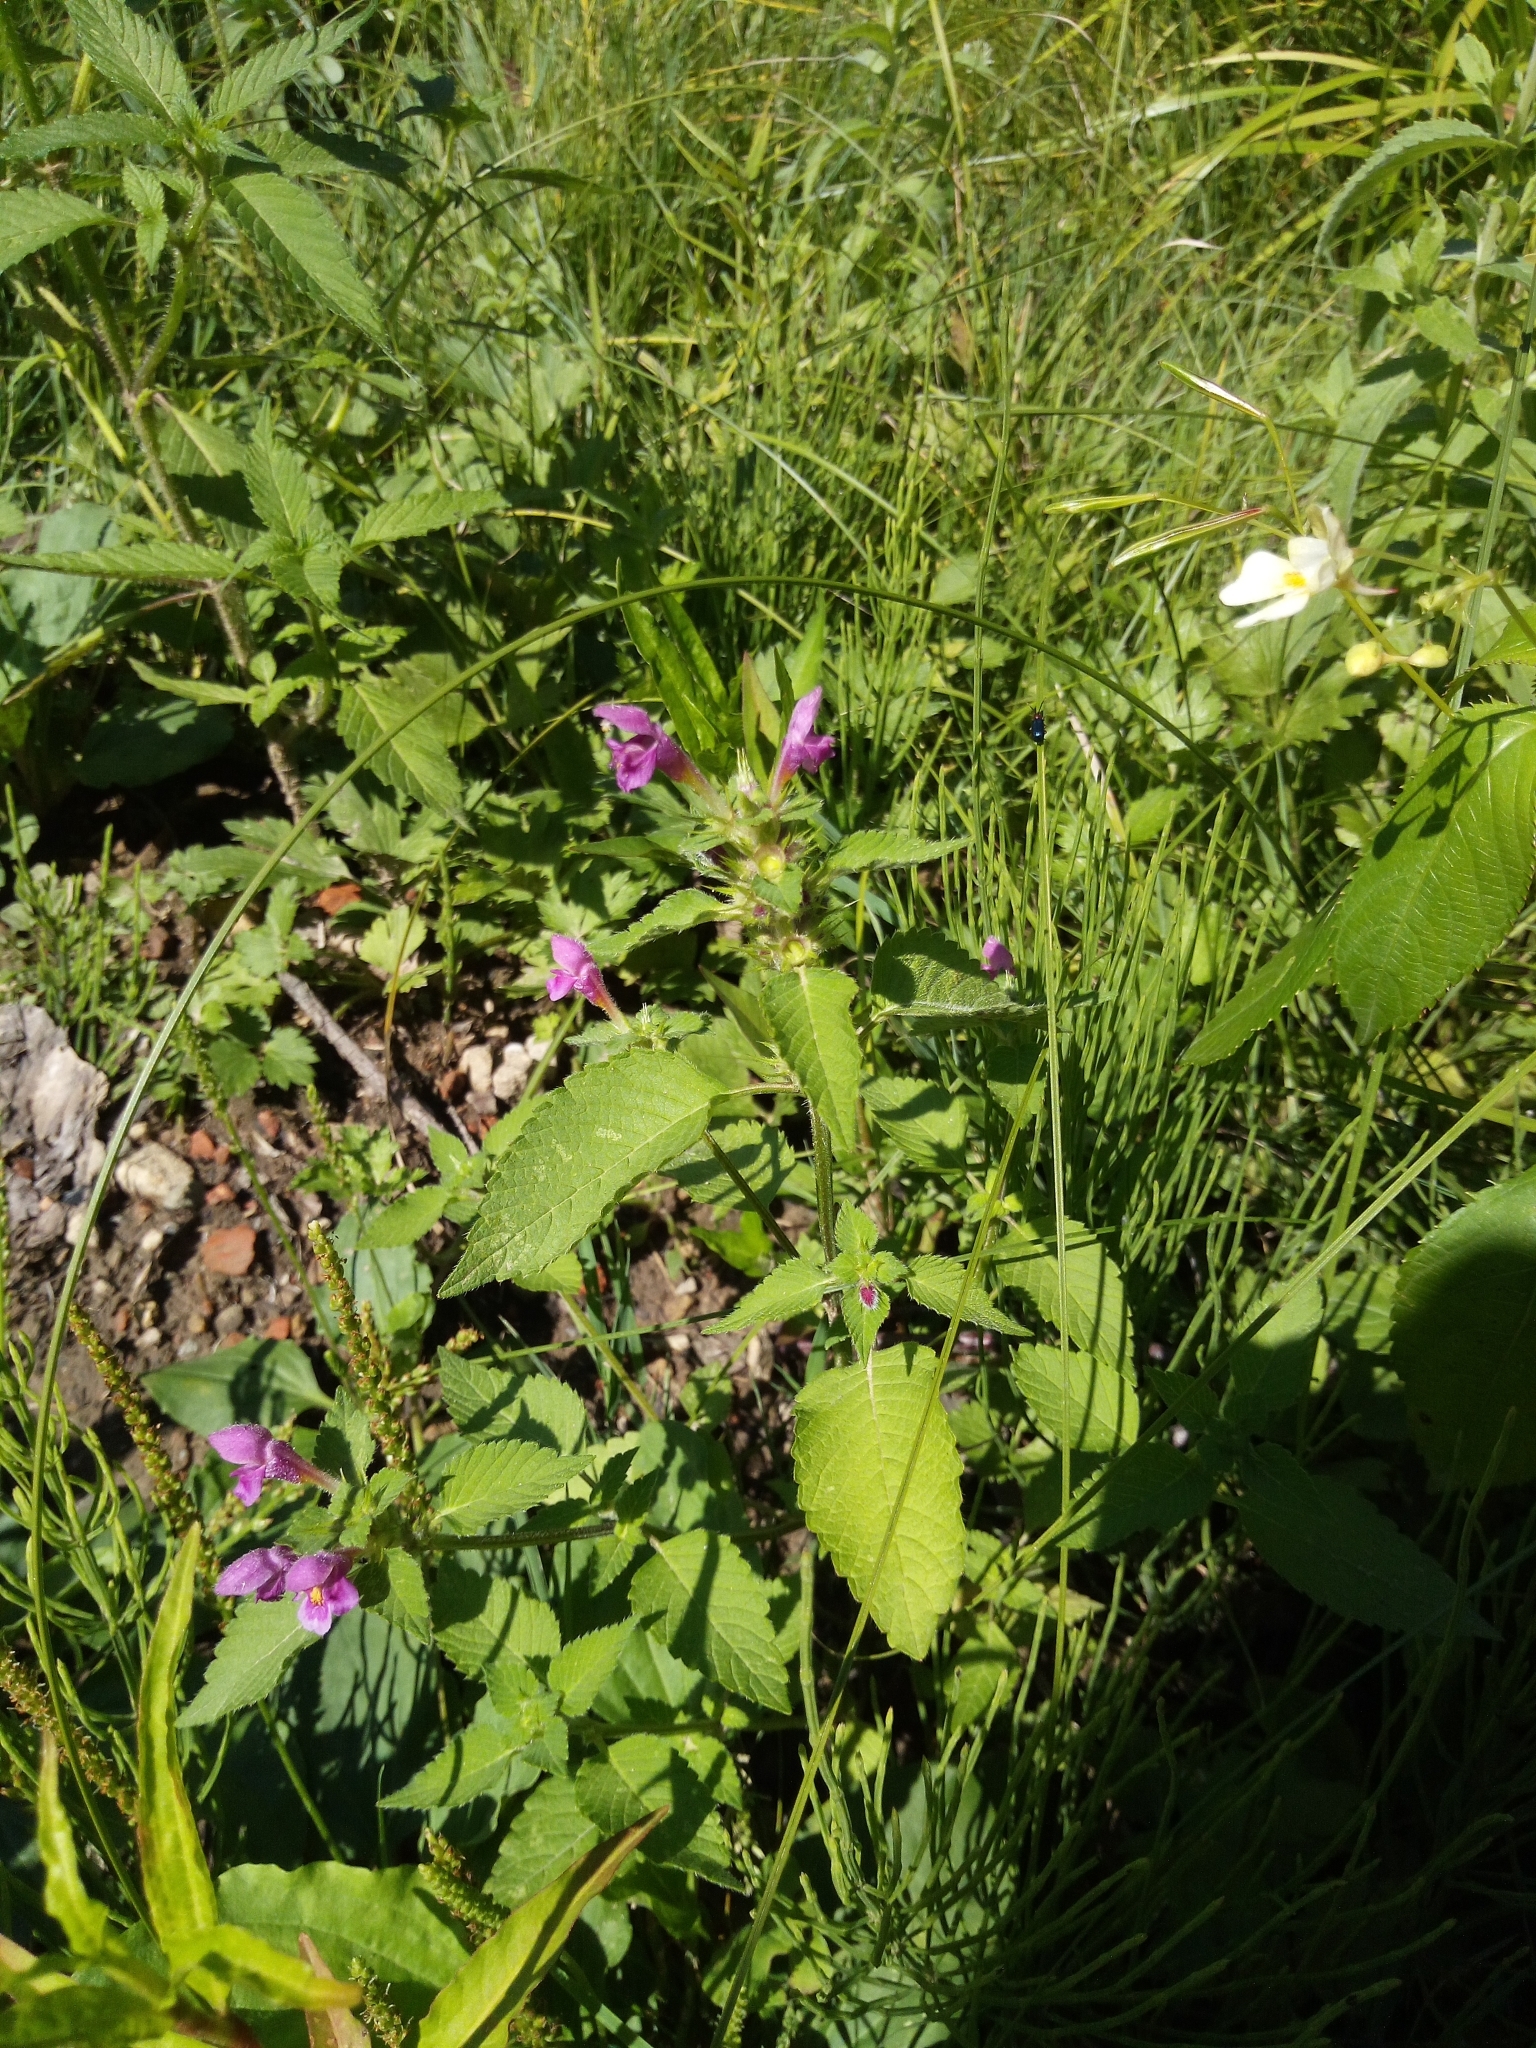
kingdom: Plantae
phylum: Tracheophyta
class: Magnoliopsida
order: Lamiales
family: Lamiaceae
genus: Galeopsis
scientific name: Galeopsis pubescens
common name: Downy hemp-nettle
